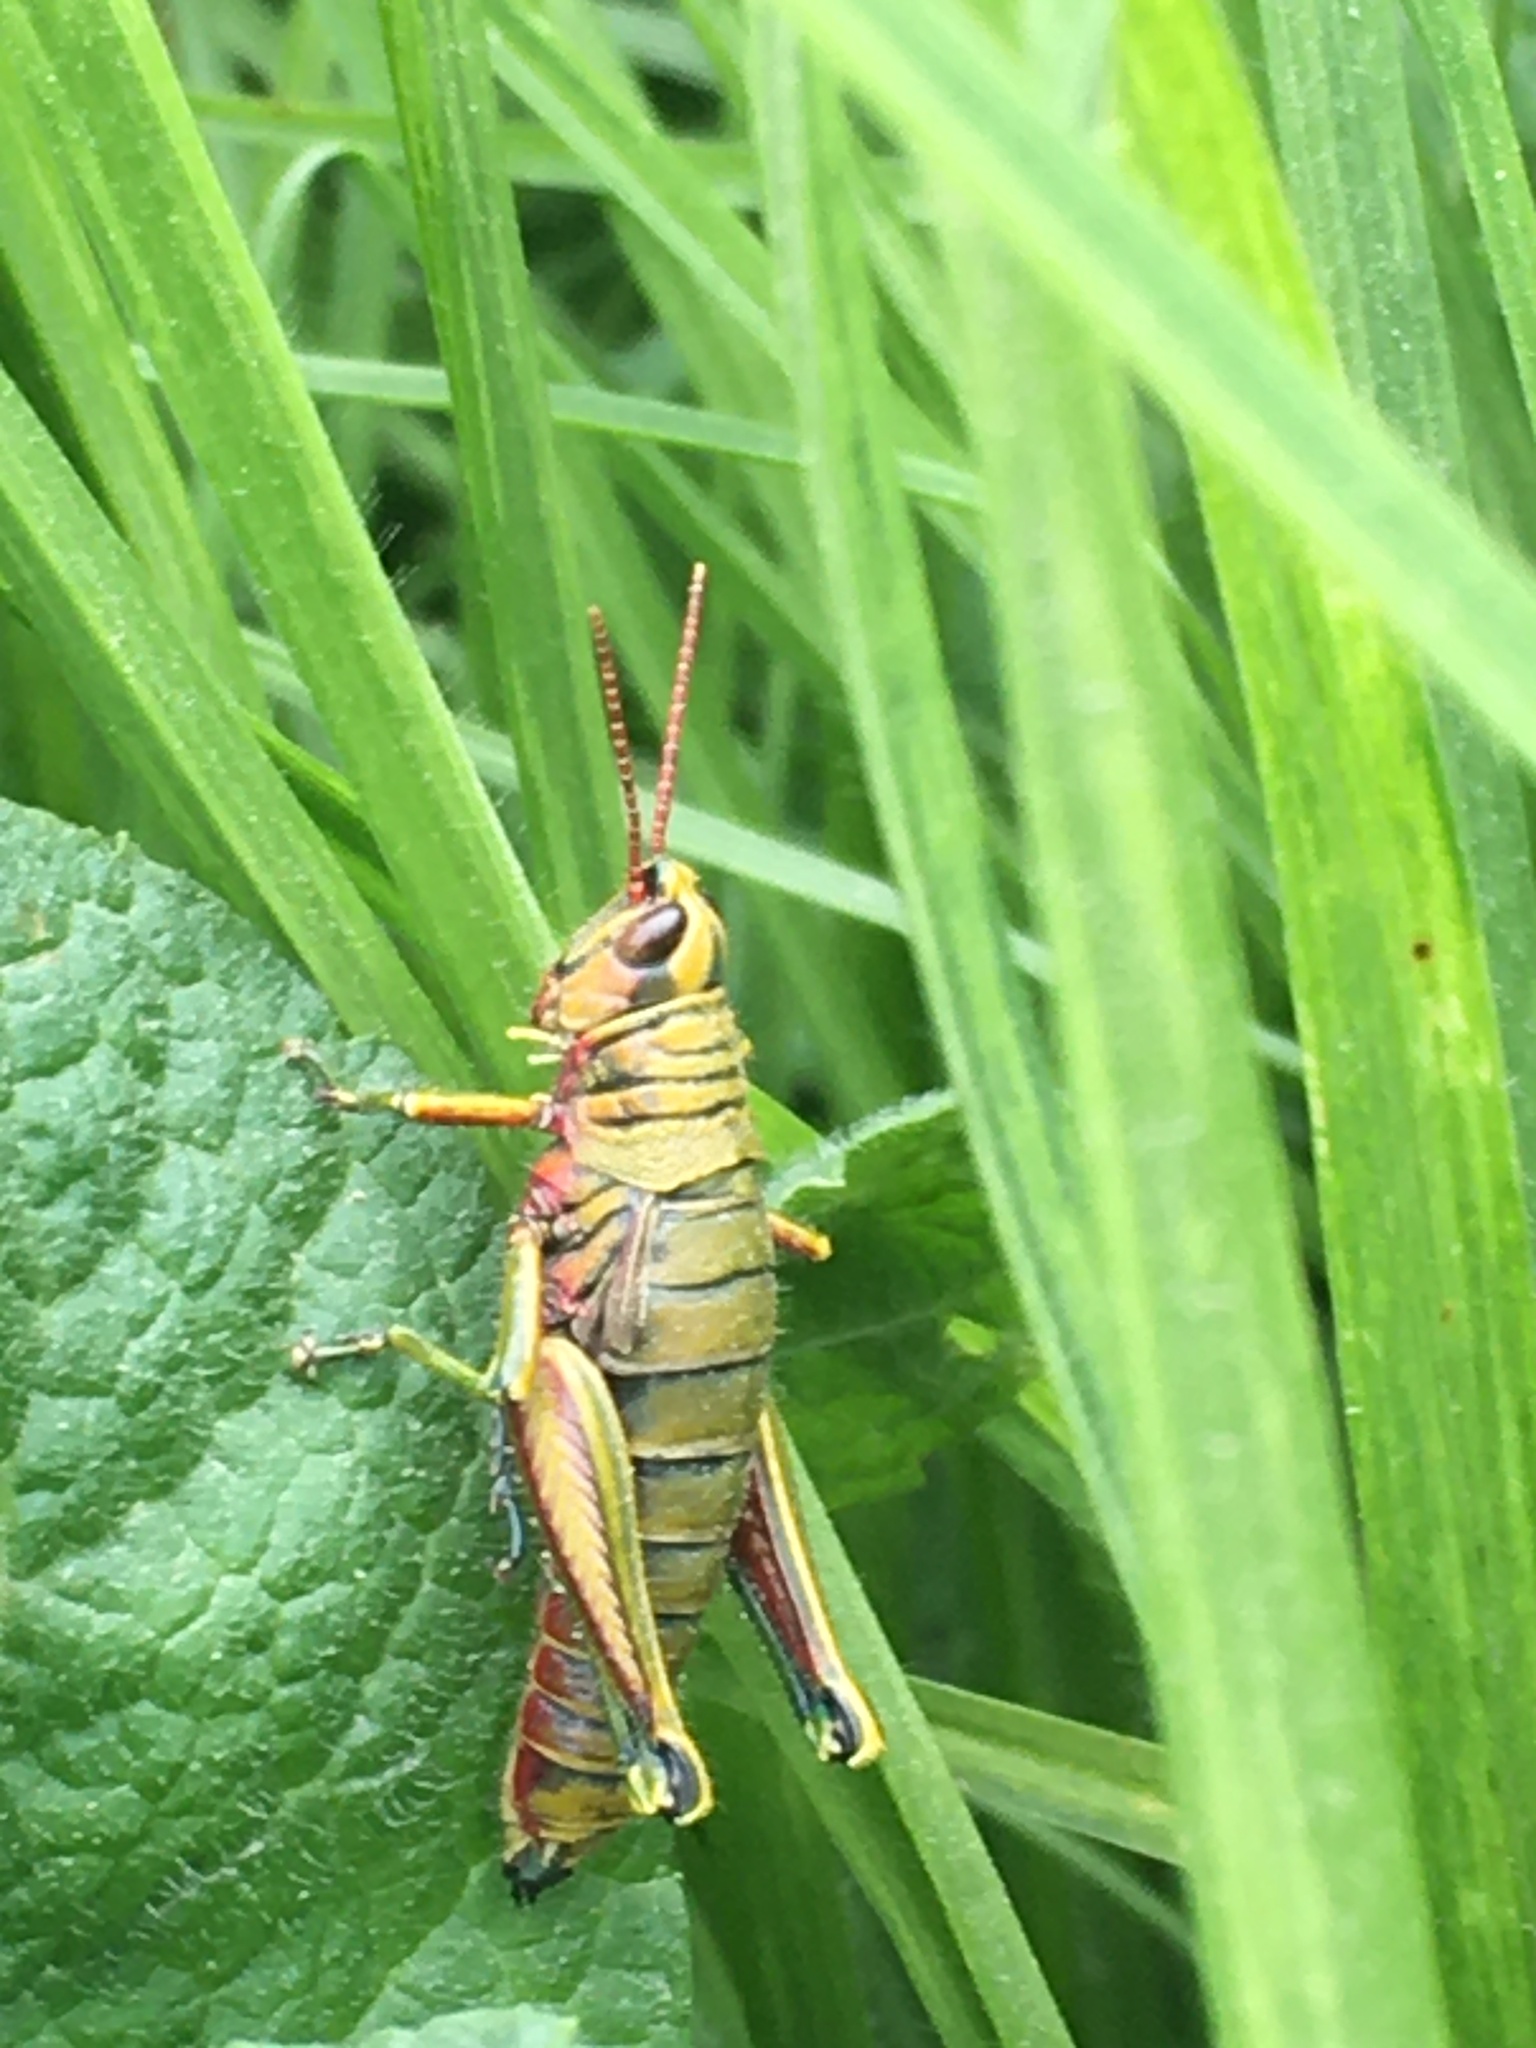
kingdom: Animalia
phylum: Arthropoda
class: Insecta
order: Orthoptera
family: Acrididae
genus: Agesander
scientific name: Agesander ruficornis
